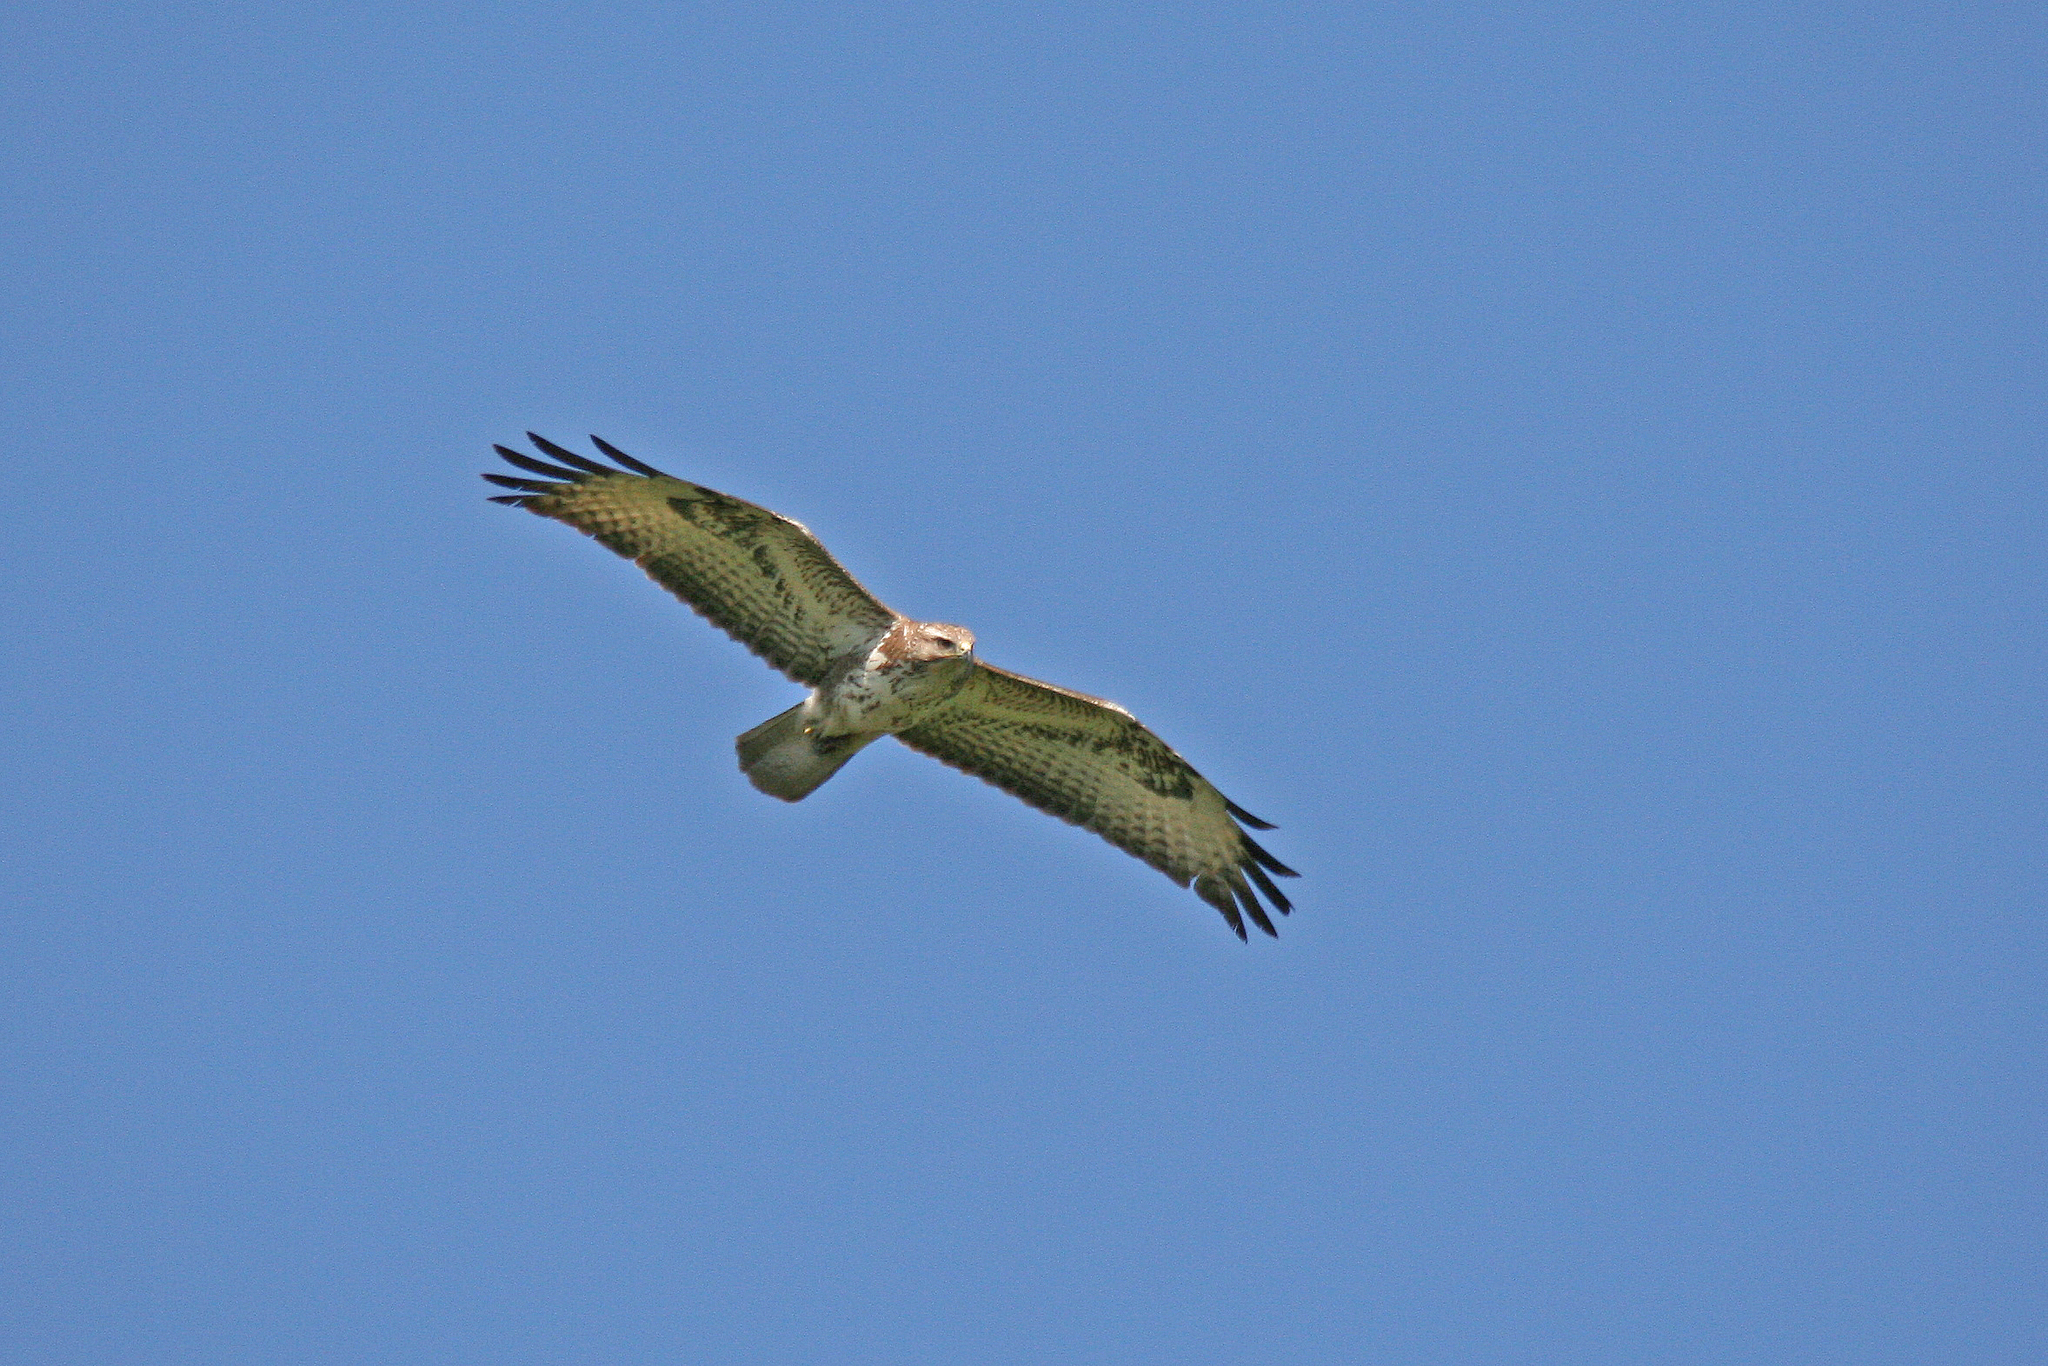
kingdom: Animalia
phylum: Chordata
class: Aves
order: Accipitriformes
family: Accipitridae
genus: Buteo
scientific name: Buteo buteo
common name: Common buzzard
